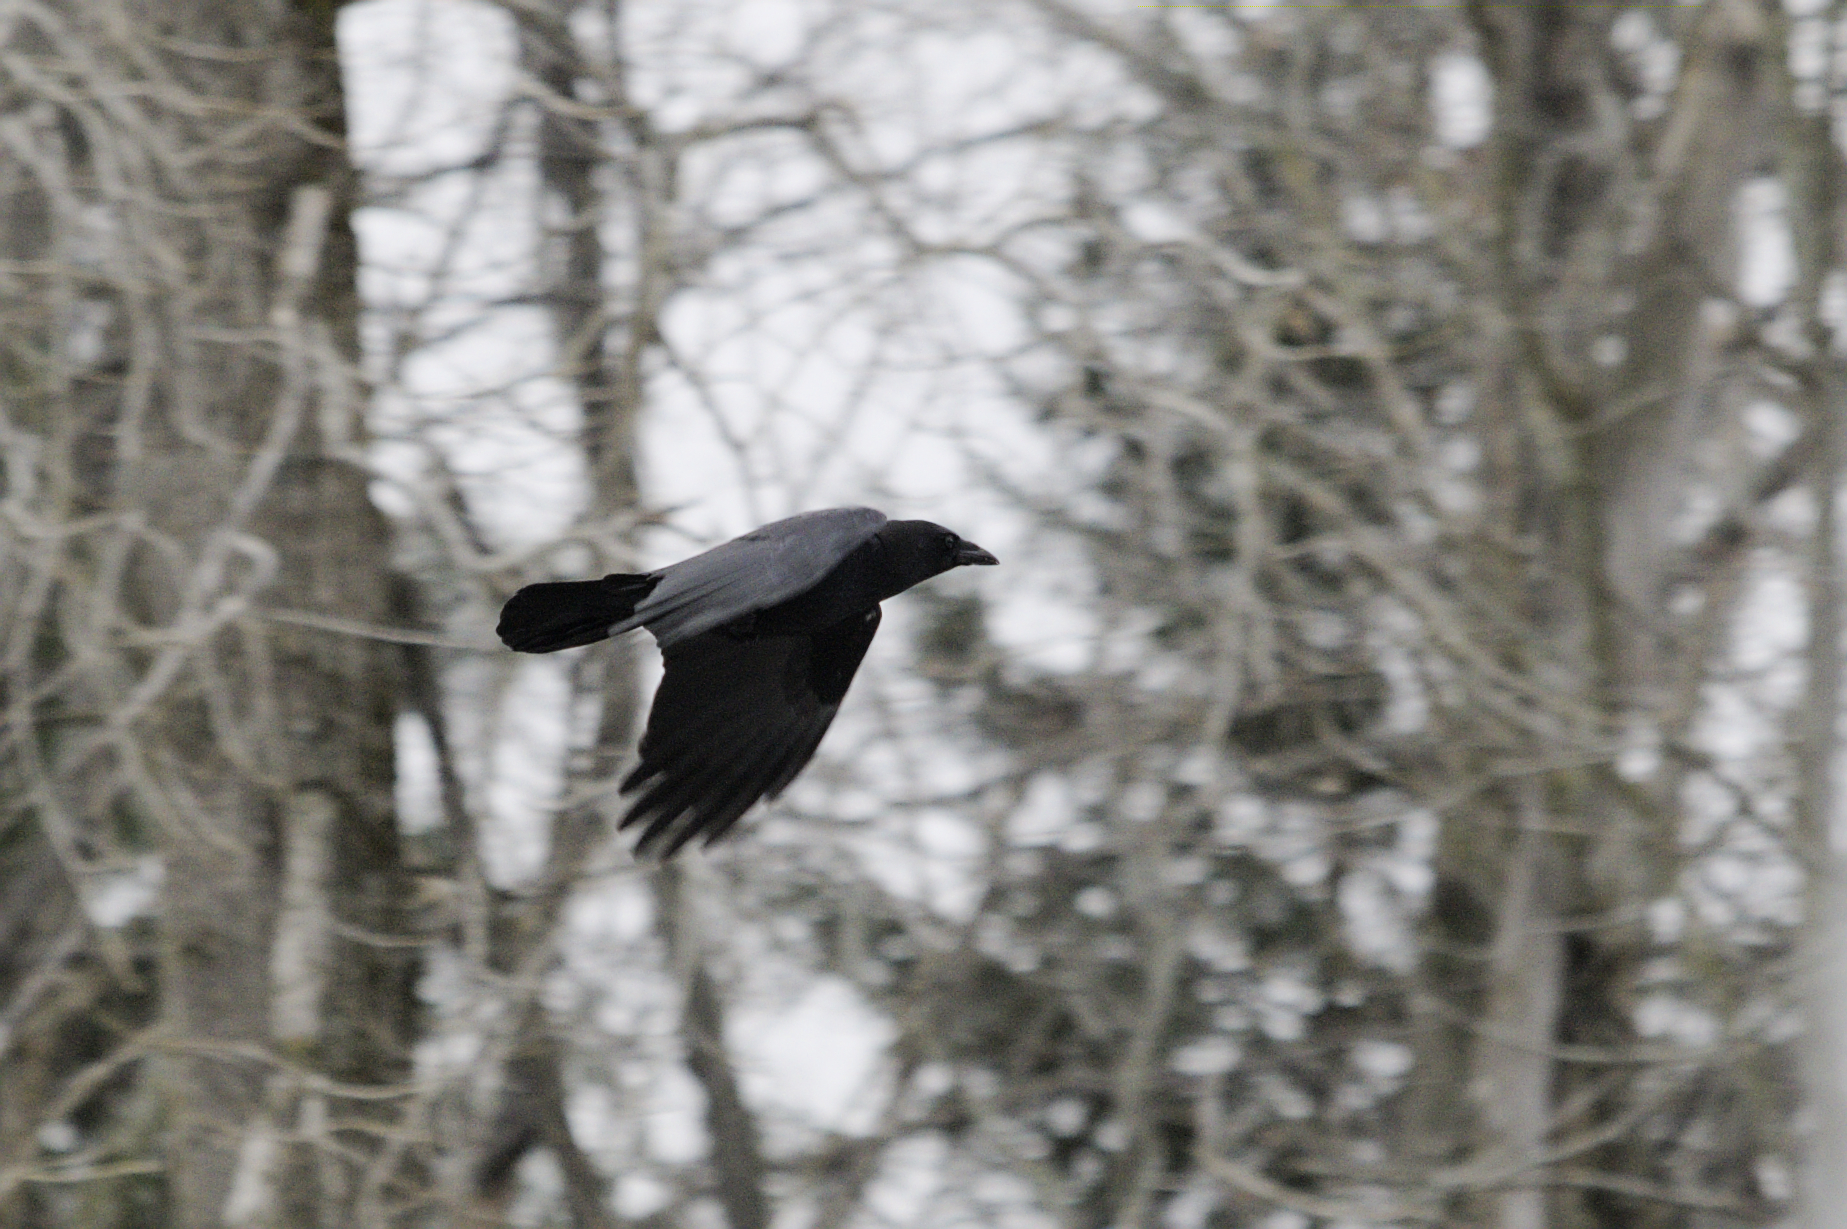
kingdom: Animalia
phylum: Chordata
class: Aves
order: Passeriformes
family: Corvidae
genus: Corvus
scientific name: Corvus brachyrhynchos
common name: American crow
